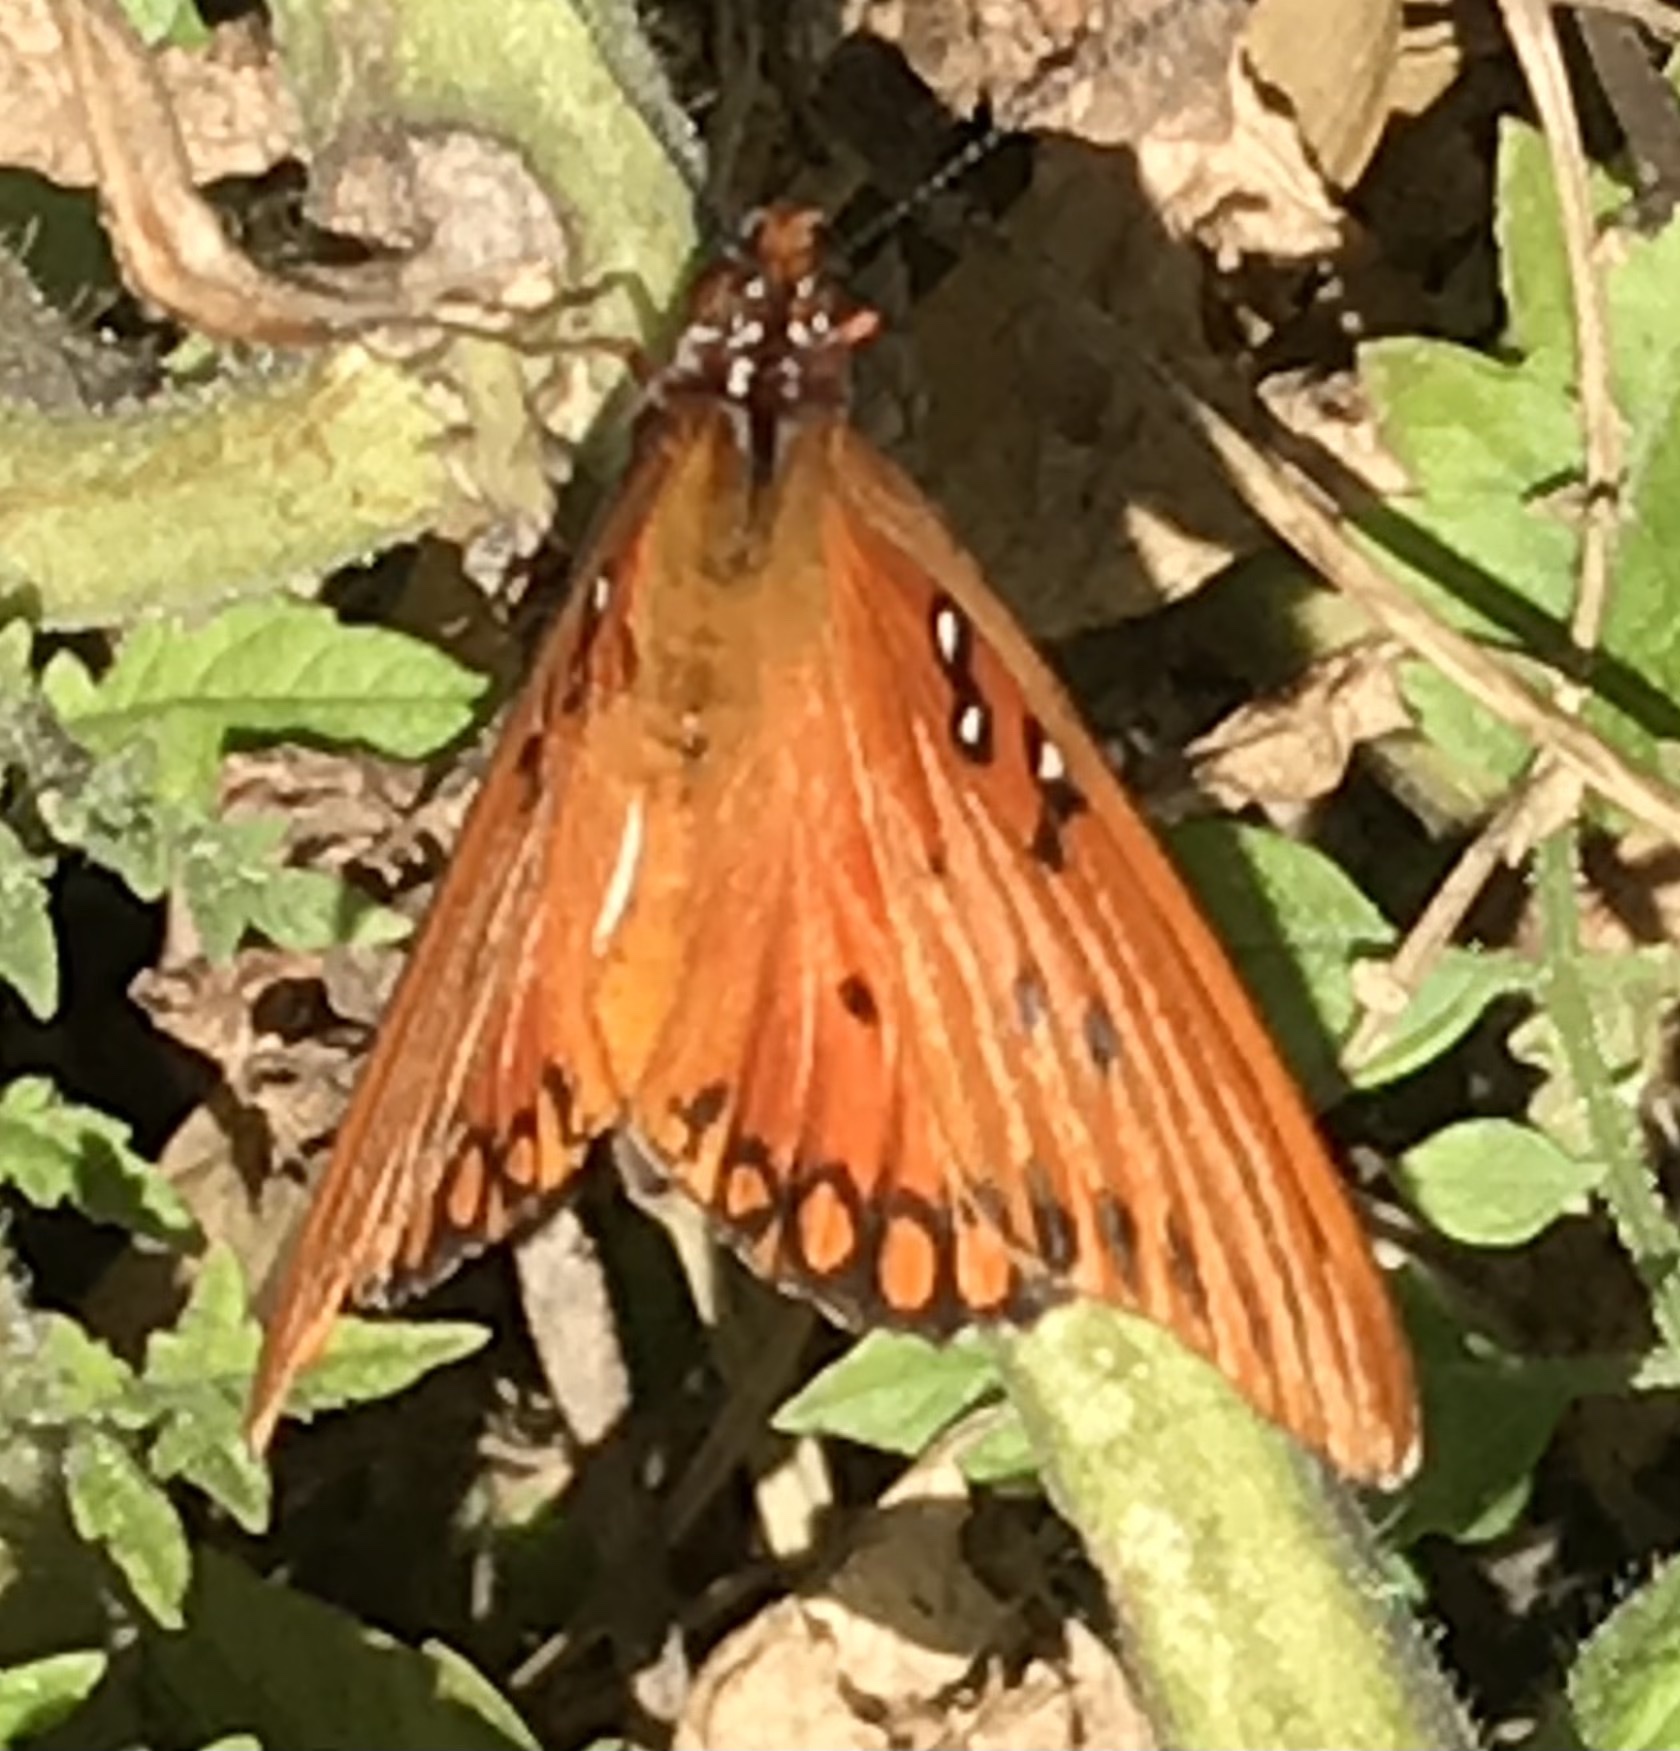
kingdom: Animalia
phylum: Arthropoda
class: Insecta
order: Lepidoptera
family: Nymphalidae
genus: Dione
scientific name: Dione vanillae
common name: Gulf fritillary
